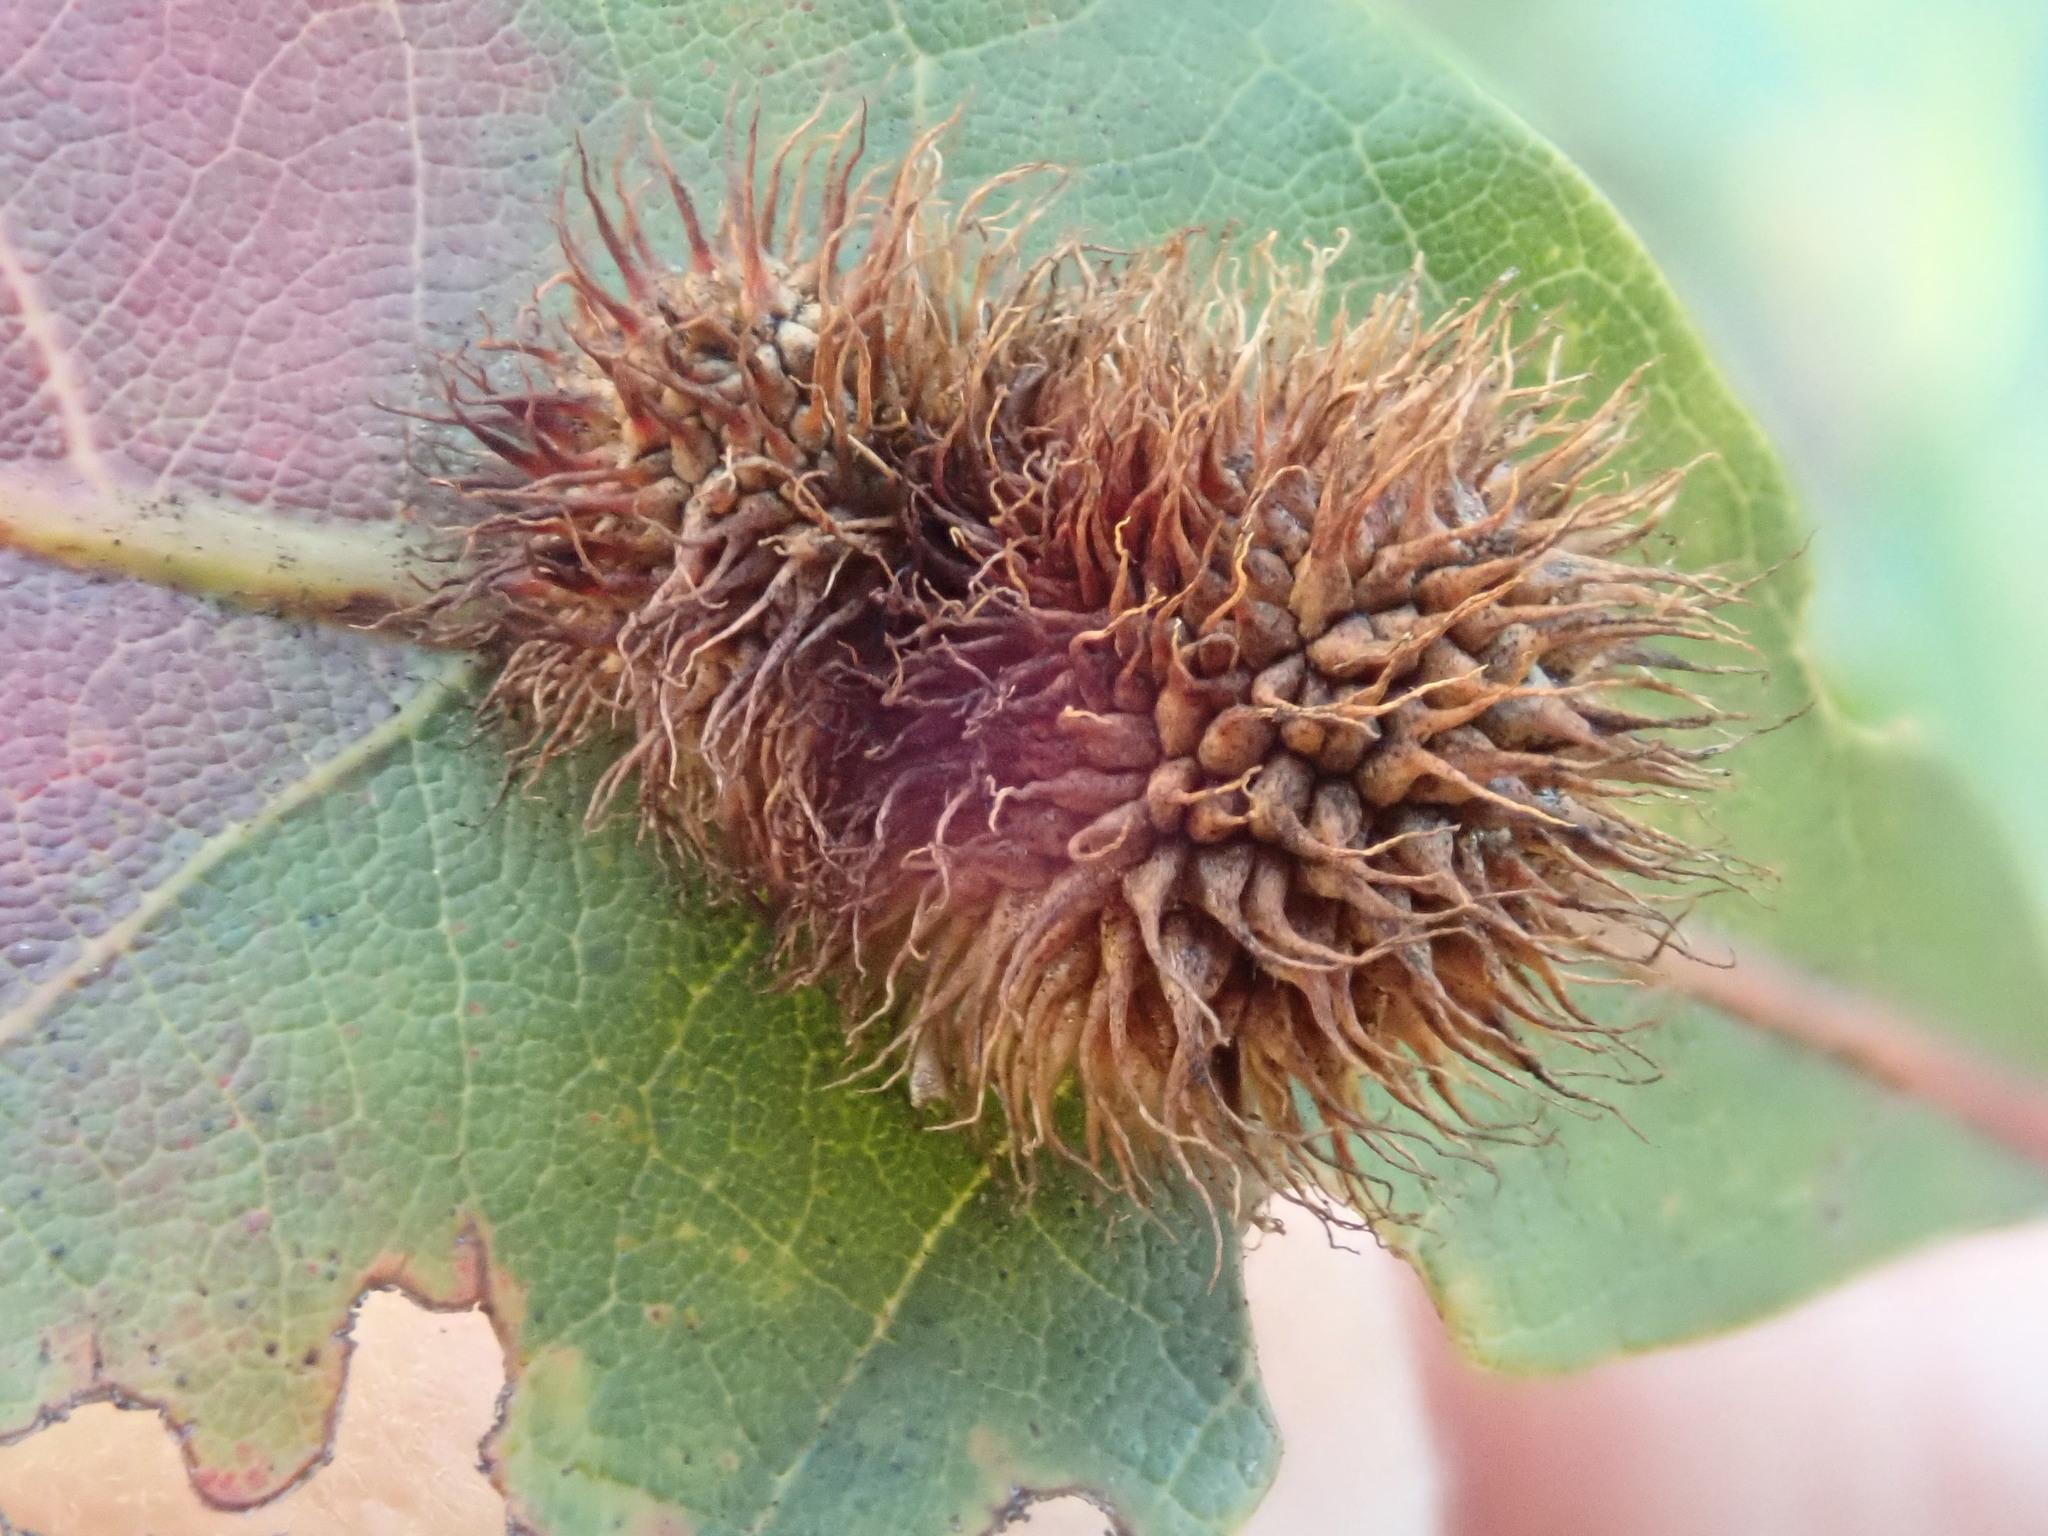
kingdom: Animalia
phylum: Arthropoda
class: Insecta
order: Hymenoptera
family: Cynipidae
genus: Acraspis
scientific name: Acraspis erinacei
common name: Hedgehog gall wasp
